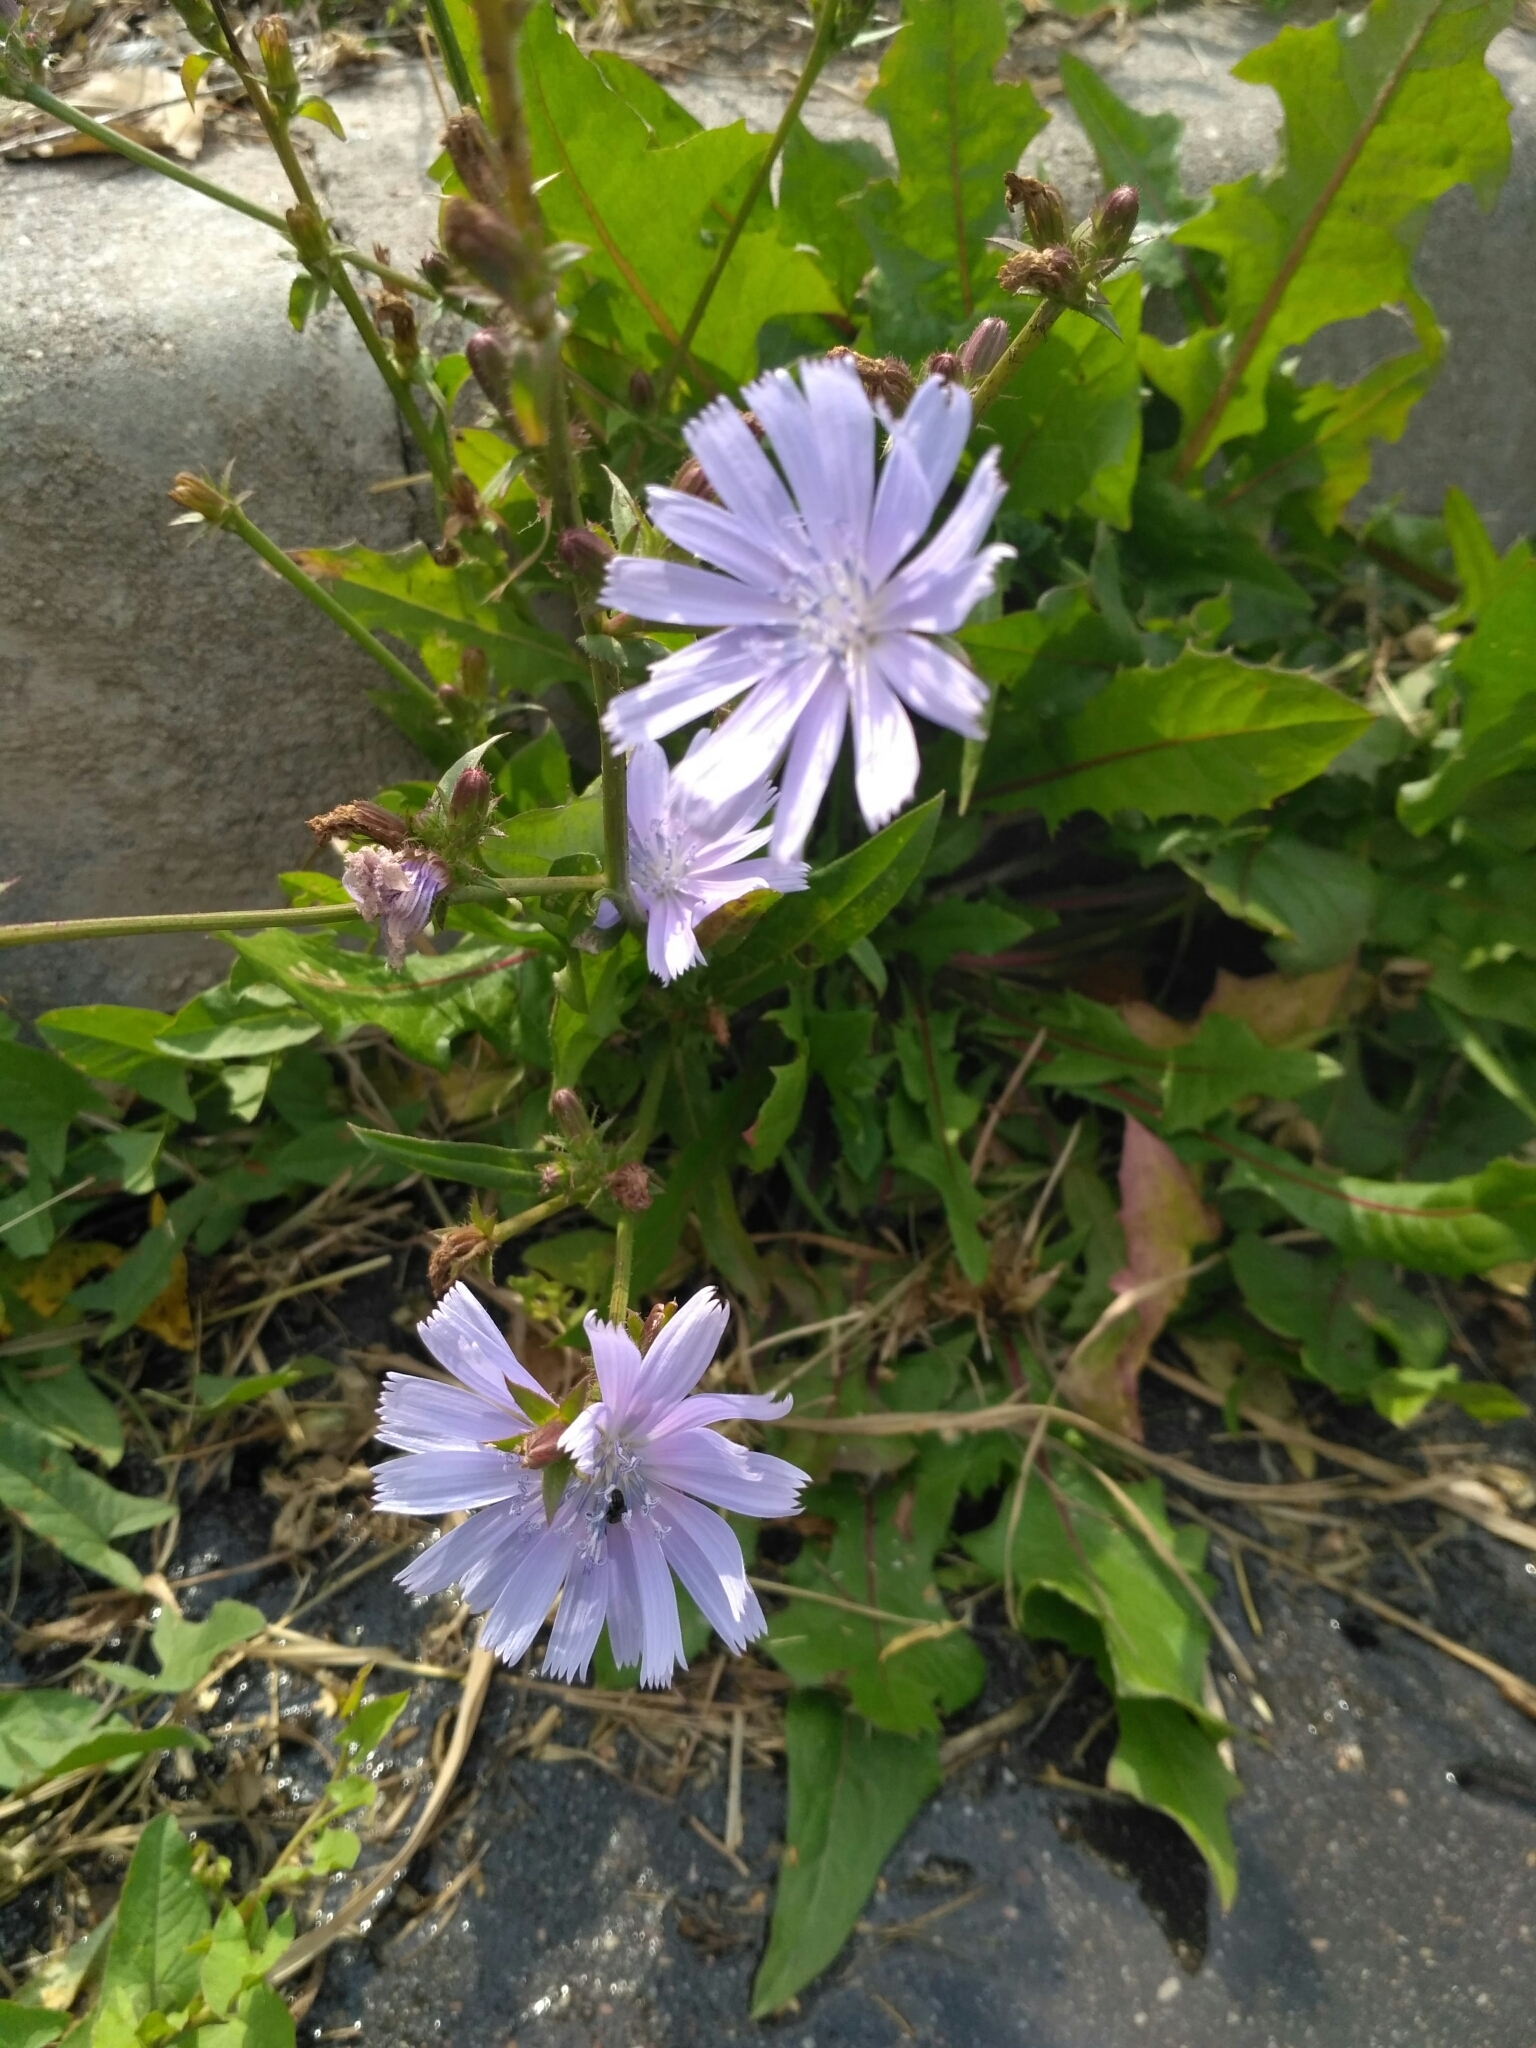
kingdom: Plantae
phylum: Tracheophyta
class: Magnoliopsida
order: Asterales
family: Asteraceae
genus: Cichorium
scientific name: Cichorium intybus
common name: Chicory
